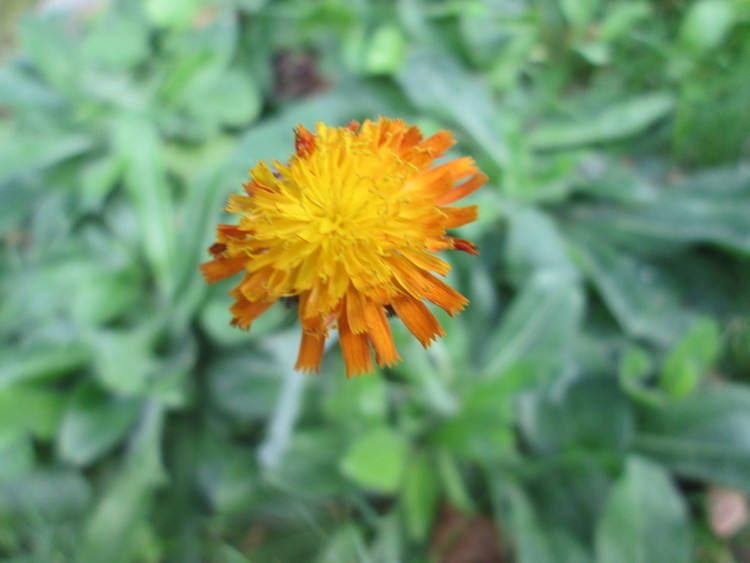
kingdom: Plantae
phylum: Tracheophyta
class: Magnoliopsida
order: Asterales
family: Asteraceae
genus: Pilosella
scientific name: Pilosella aurantiaca
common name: Fox-and-cubs
